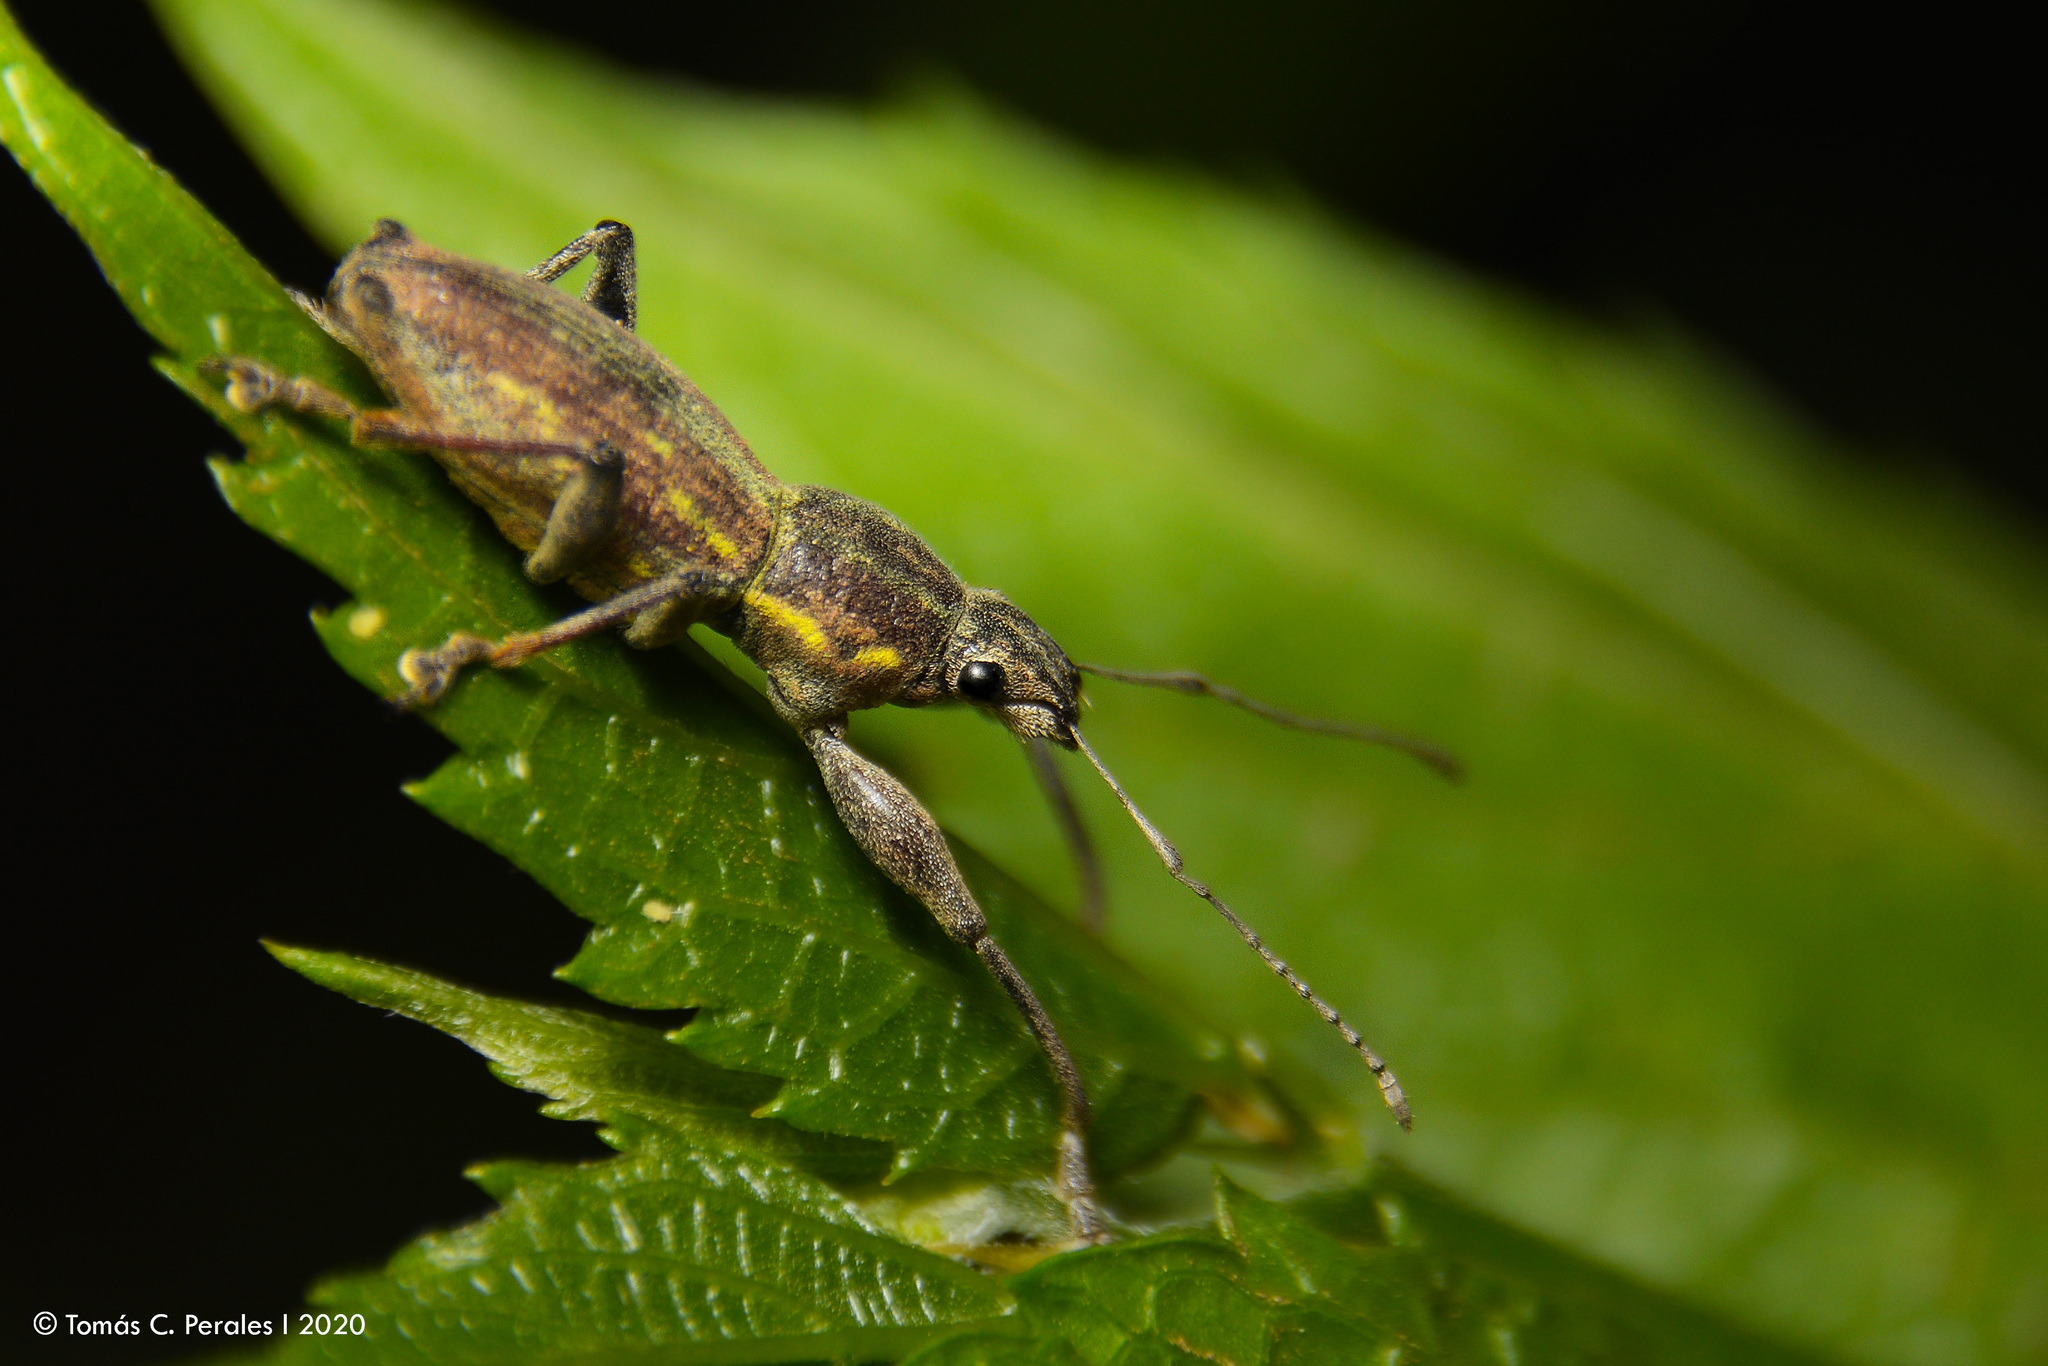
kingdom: Animalia
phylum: Arthropoda
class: Insecta
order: Coleoptera
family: Curculionidae
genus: Naupactus
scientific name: Naupactus xanthographus
